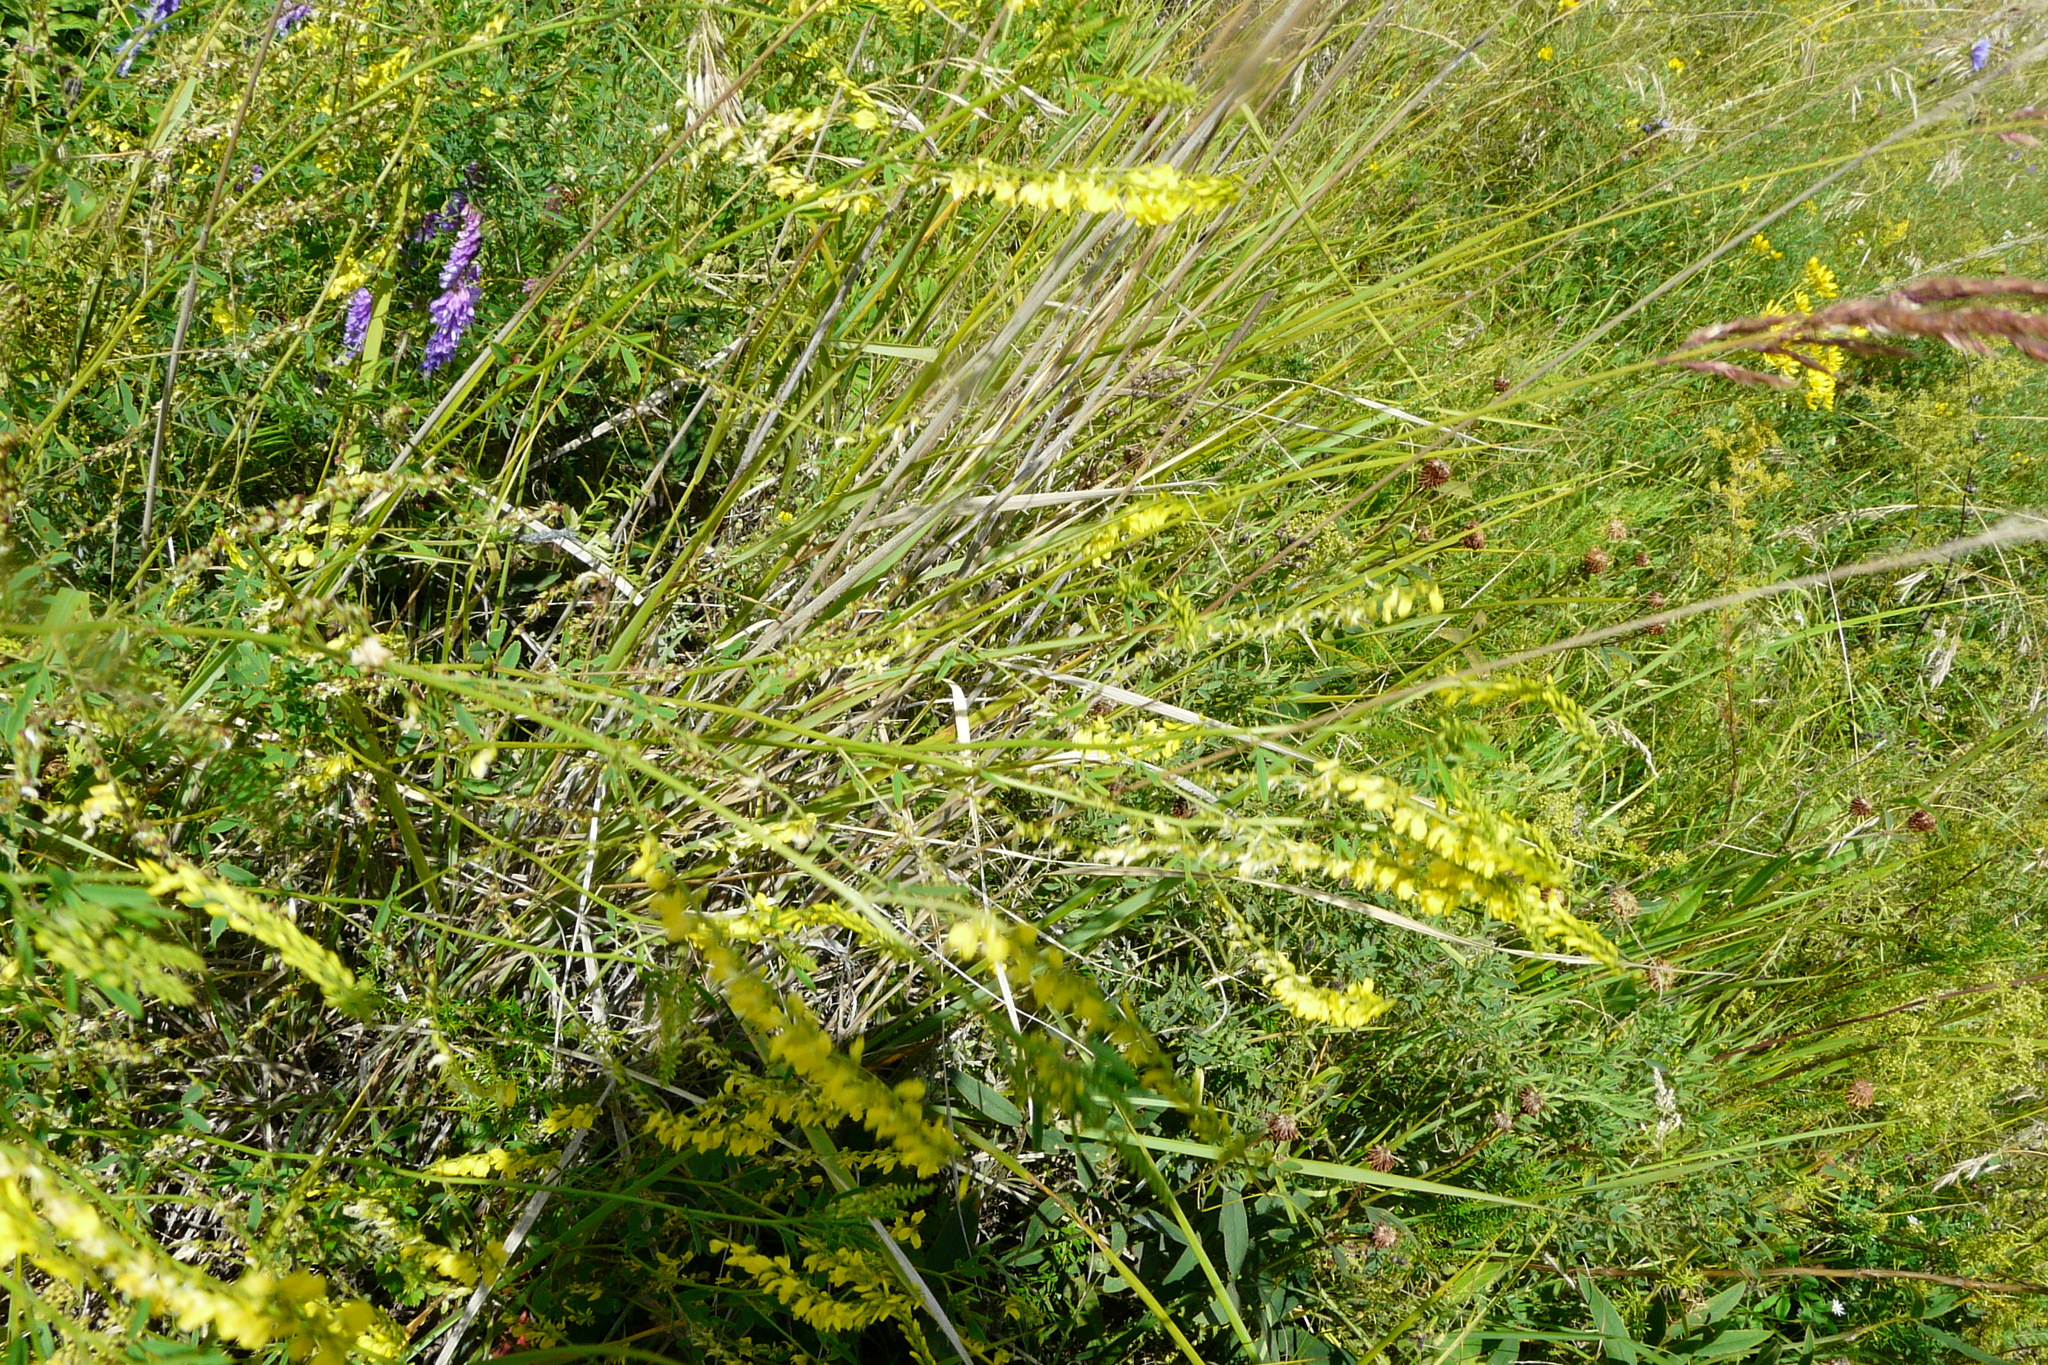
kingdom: Plantae
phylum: Tracheophyta
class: Magnoliopsida
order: Fabales
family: Fabaceae
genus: Melilotus
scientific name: Melilotus officinalis
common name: Sweetclover
